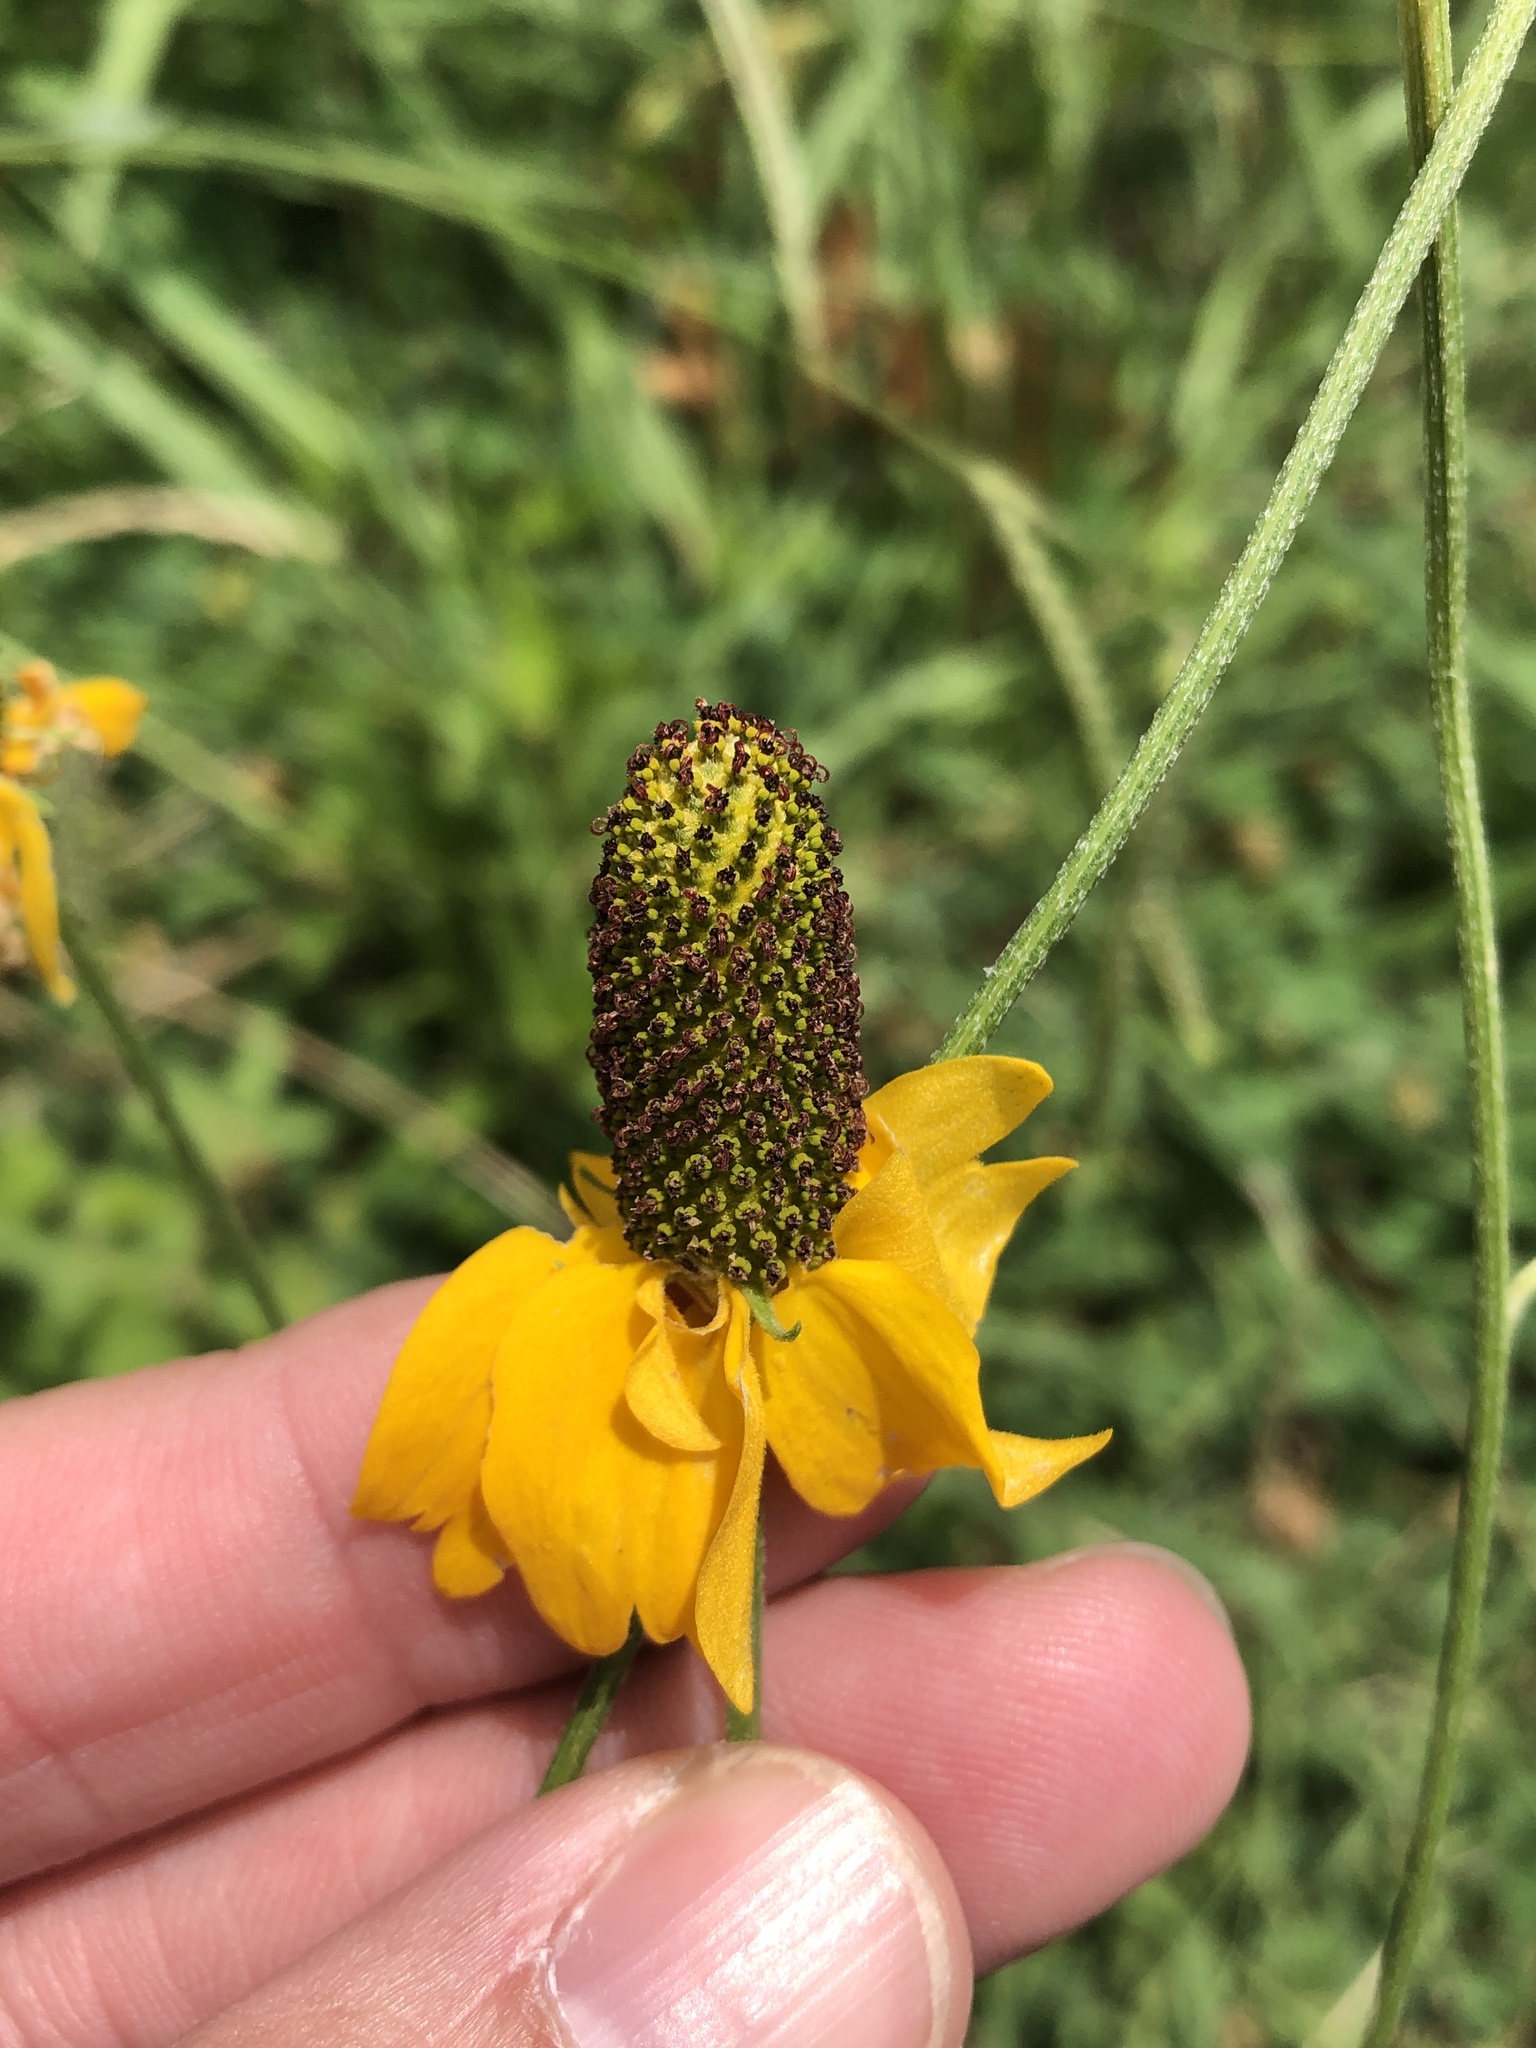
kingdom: Plantae
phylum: Tracheophyta
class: Magnoliopsida
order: Asterales
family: Asteraceae
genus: Ratibida
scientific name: Ratibida columnifera
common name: Prairie coneflower
